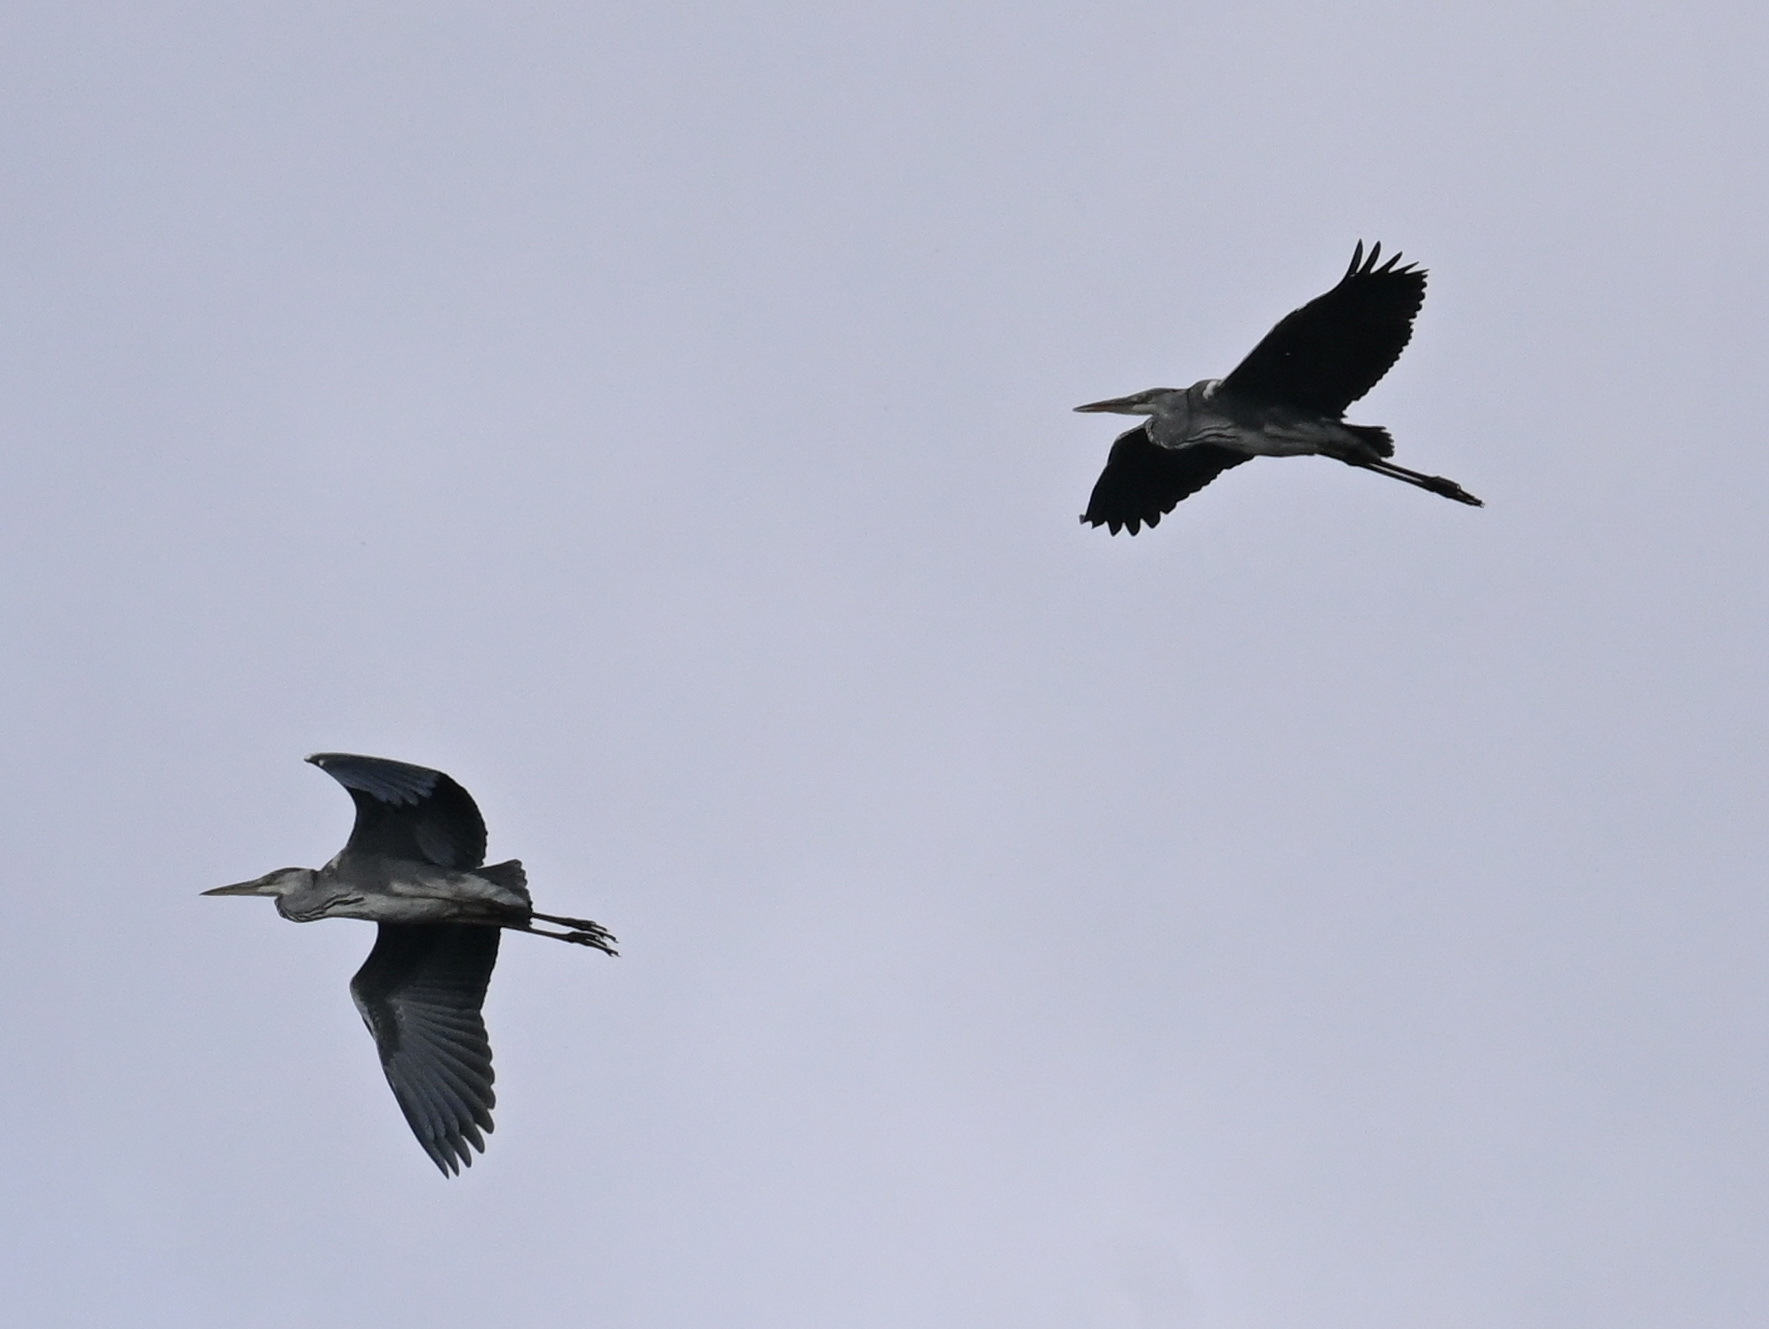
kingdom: Animalia
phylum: Chordata
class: Aves
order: Pelecaniformes
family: Ardeidae
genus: Ardea
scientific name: Ardea cinerea
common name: Grey heron
